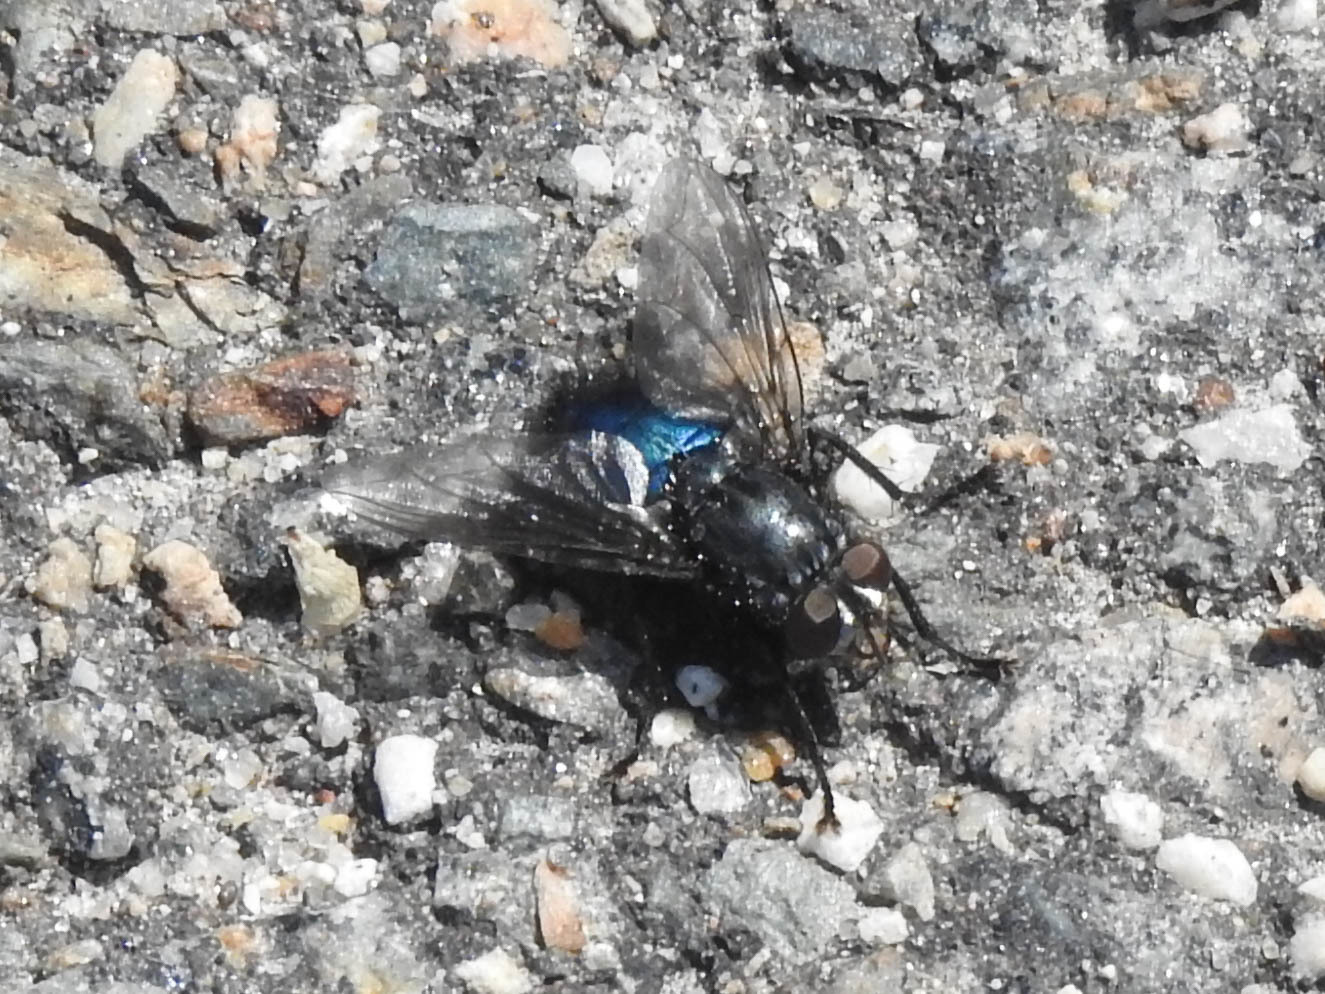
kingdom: Animalia
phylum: Arthropoda
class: Insecta
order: Diptera
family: Calliphoridae
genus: Cynomya
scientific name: Cynomya cadaverina
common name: Shiny blue bottle fly
